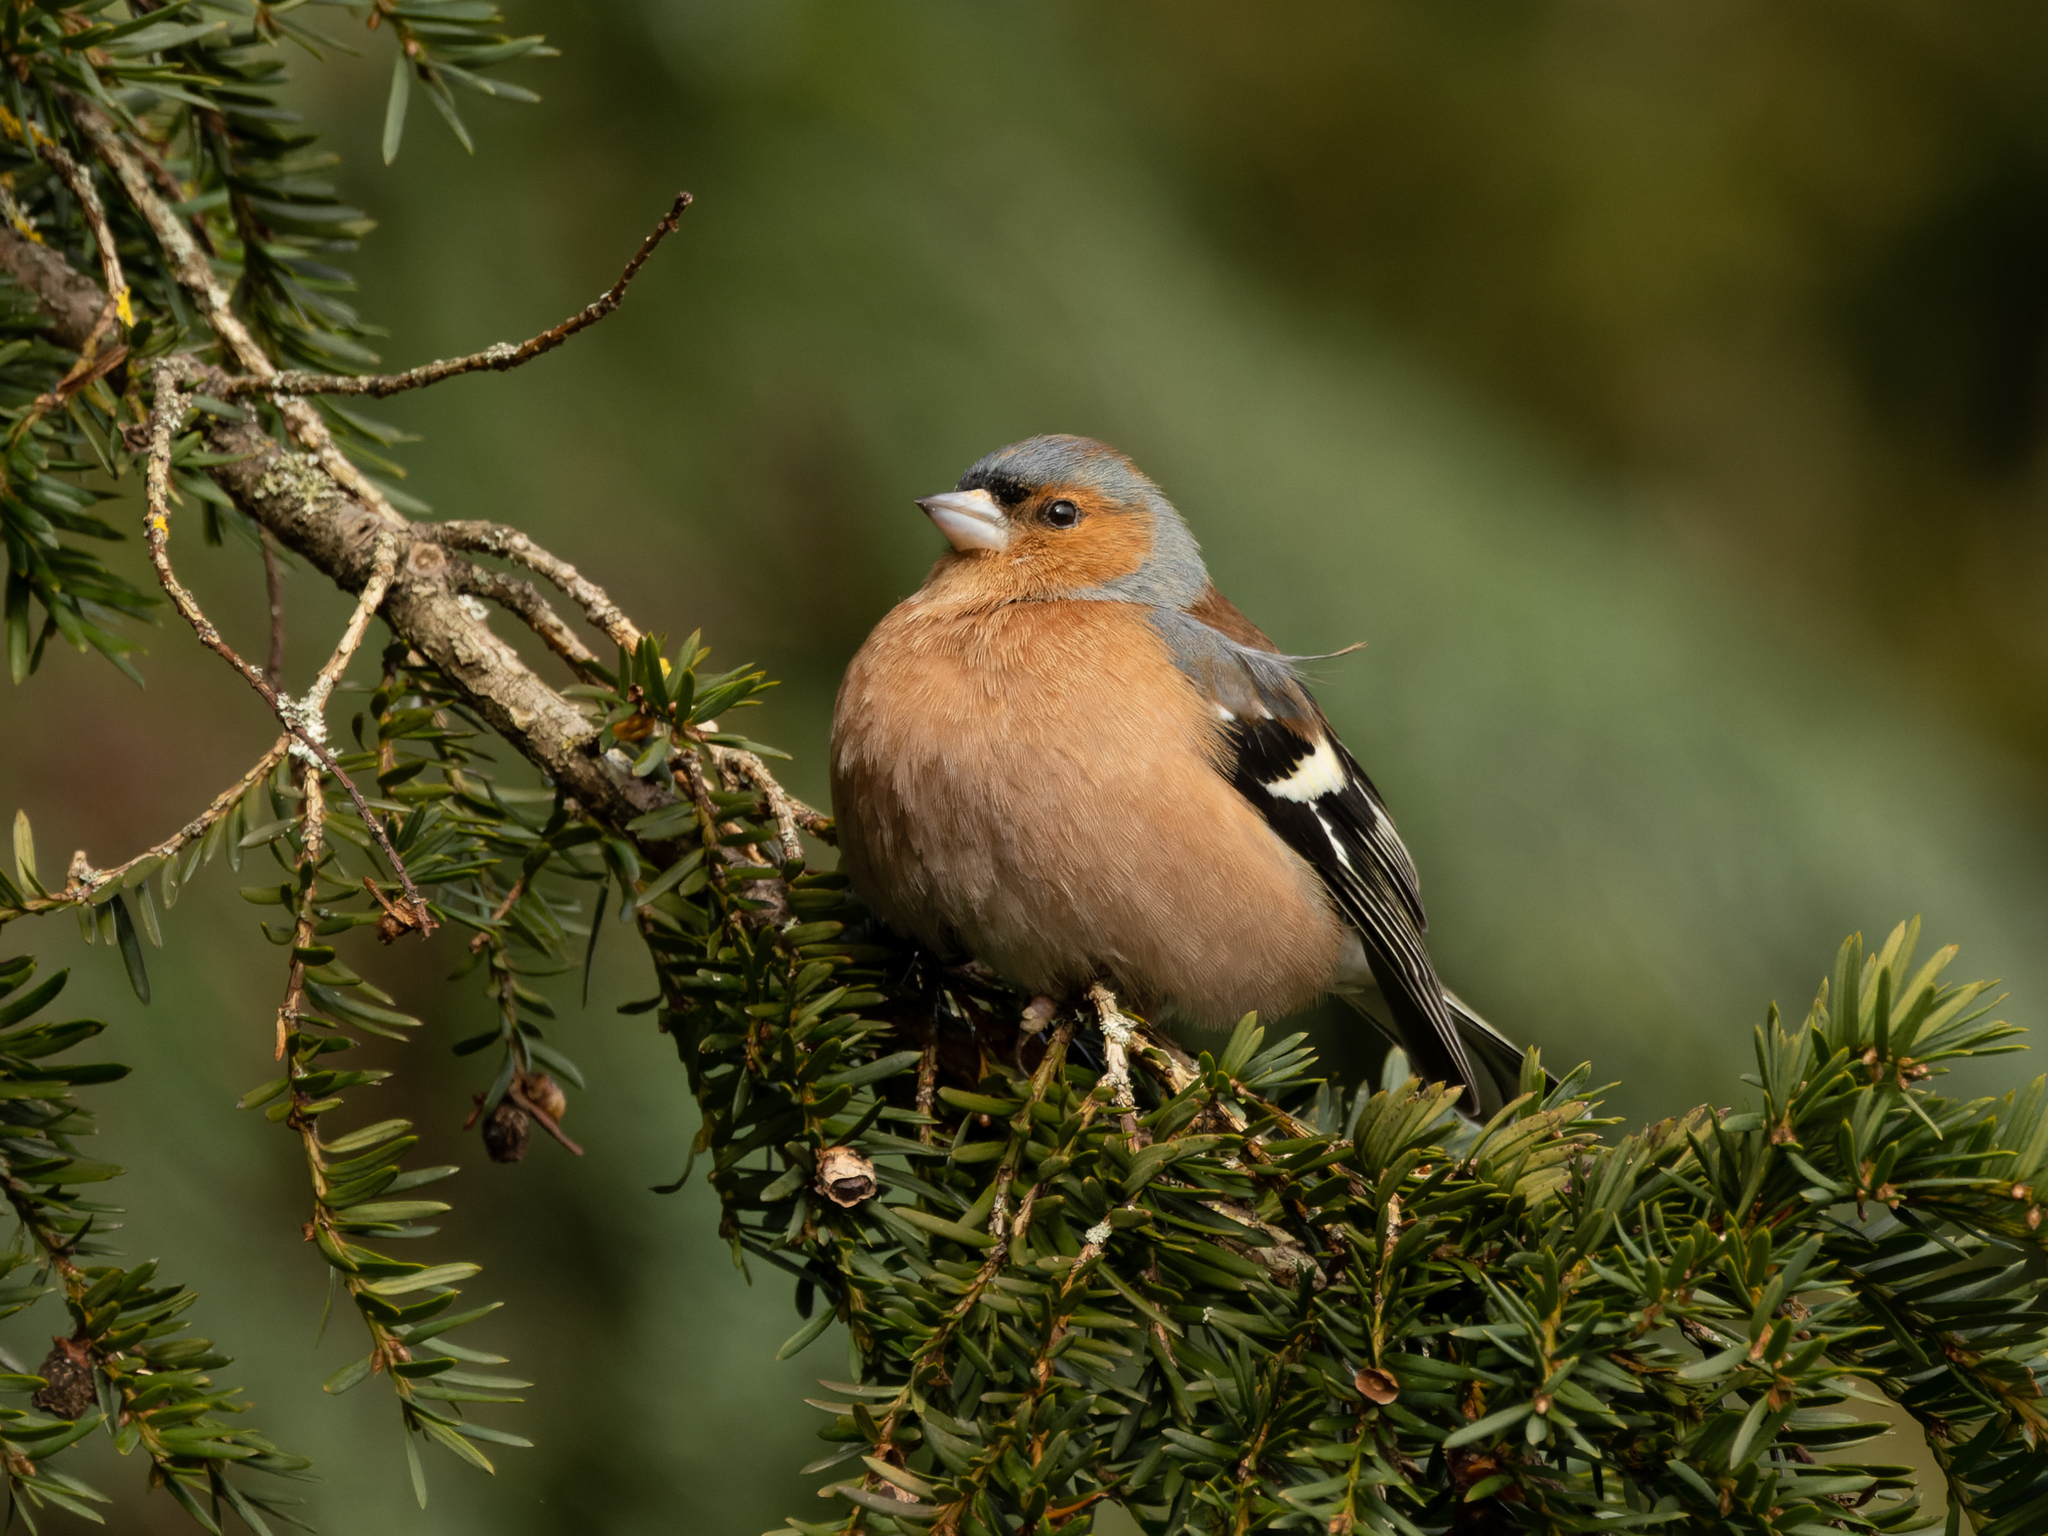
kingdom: Animalia
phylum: Chordata
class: Aves
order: Passeriformes
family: Fringillidae
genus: Fringilla
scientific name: Fringilla coelebs
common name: Common chaffinch
